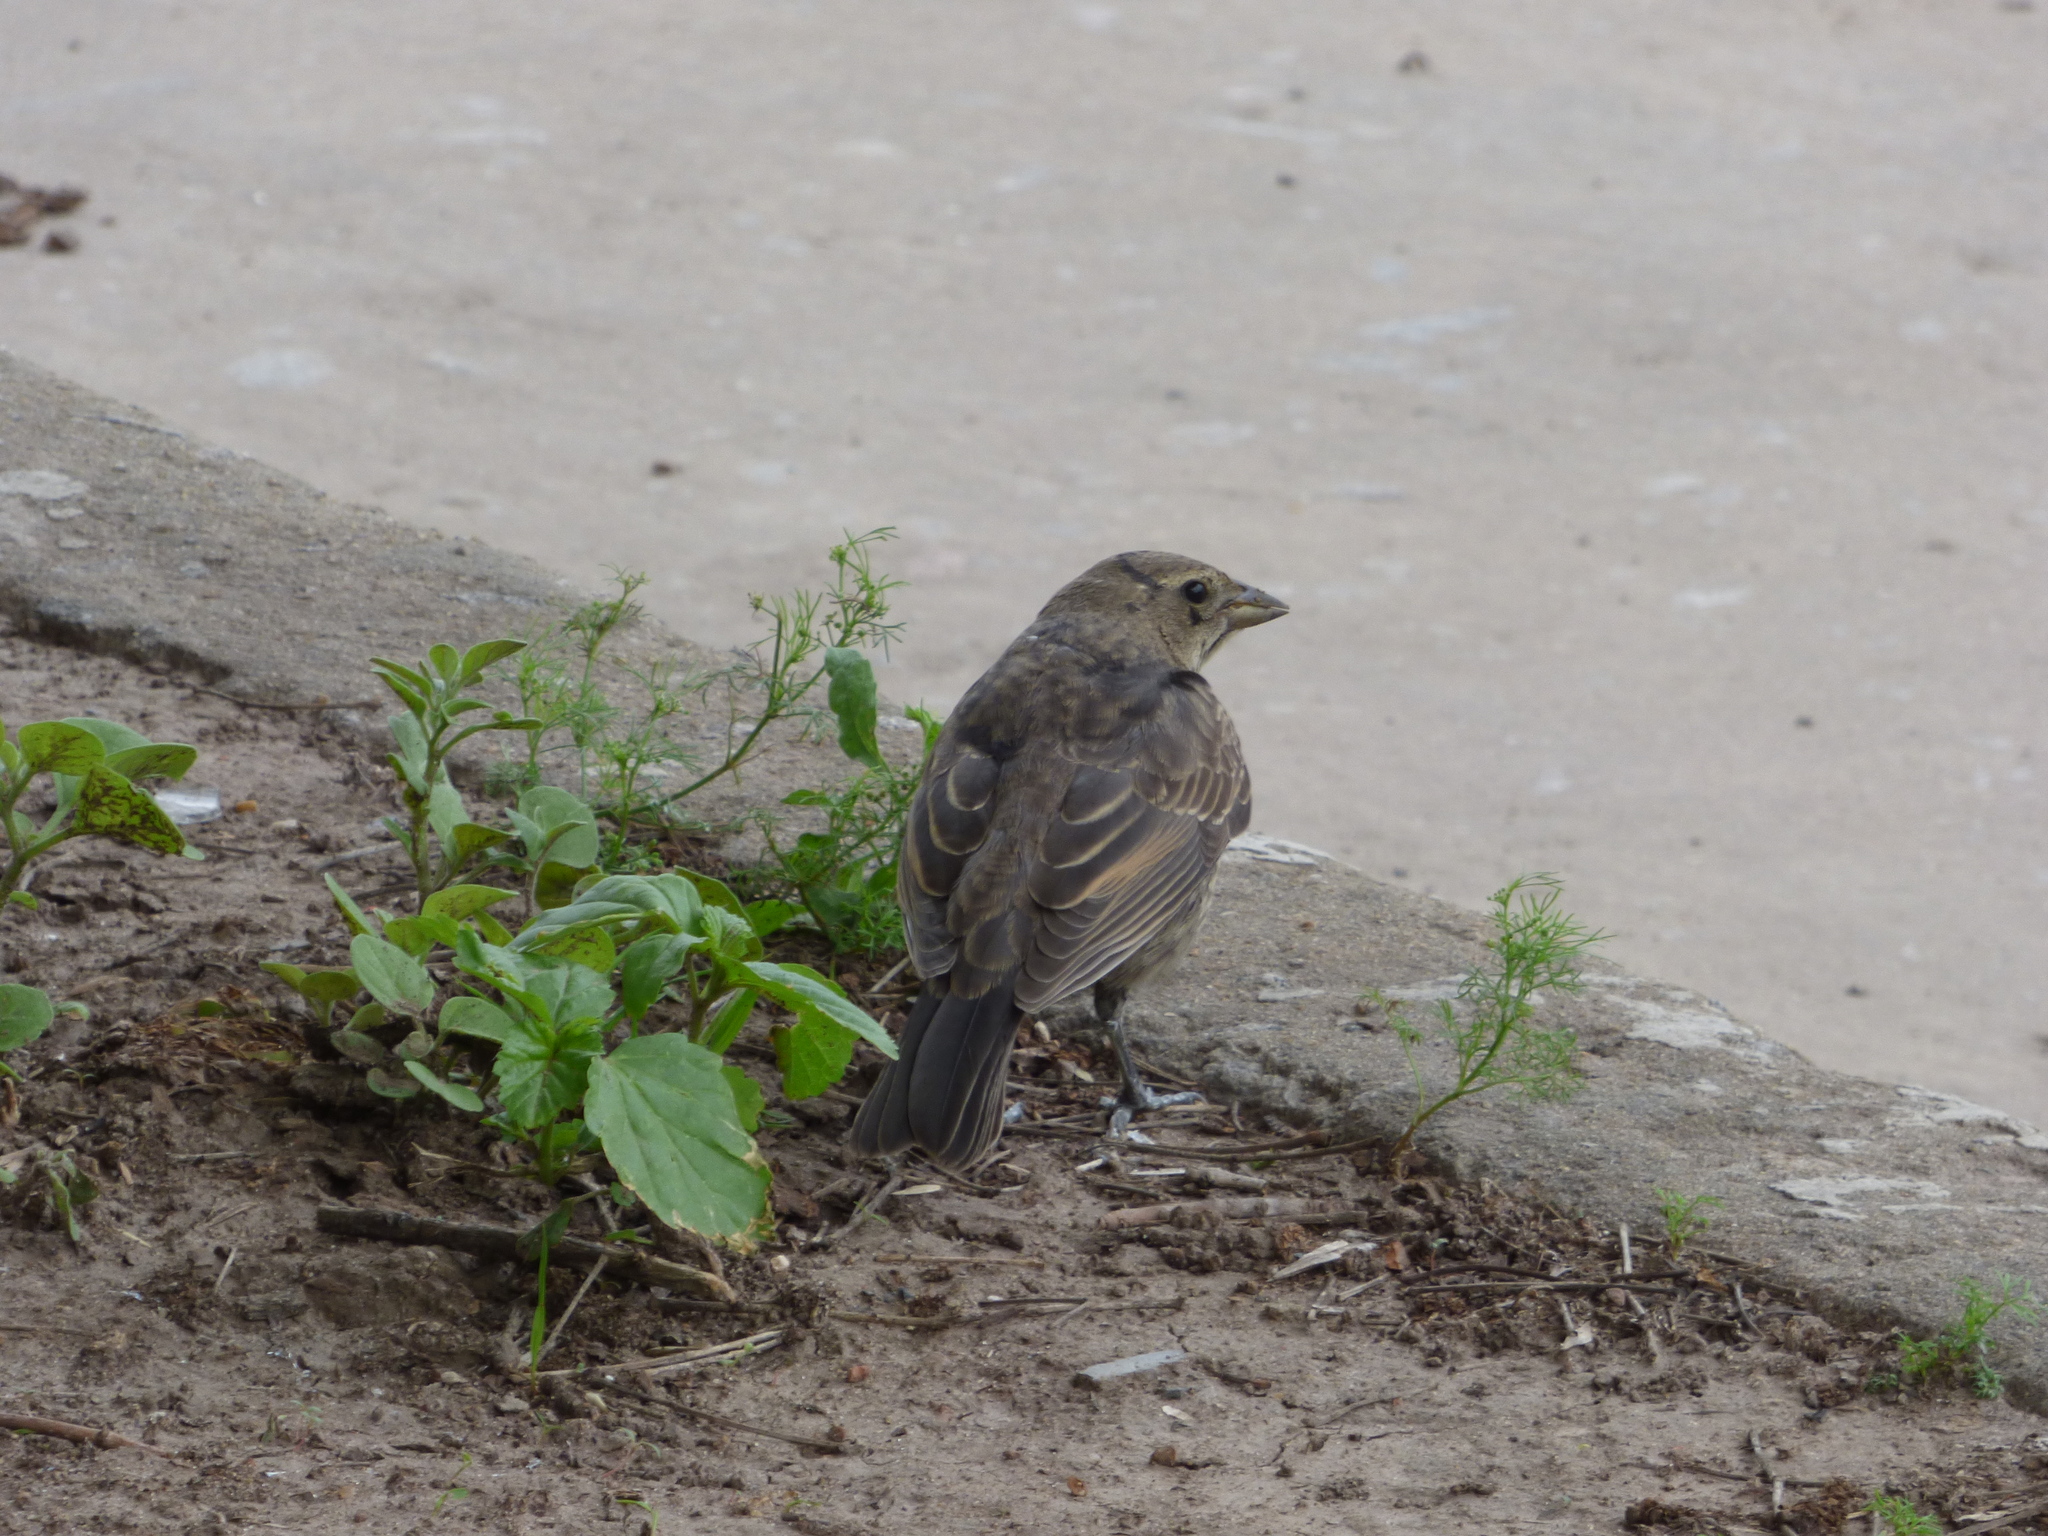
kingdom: Animalia
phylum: Chordata
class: Aves
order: Passeriformes
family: Icteridae
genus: Molothrus
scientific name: Molothrus bonariensis
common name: Shiny cowbird
